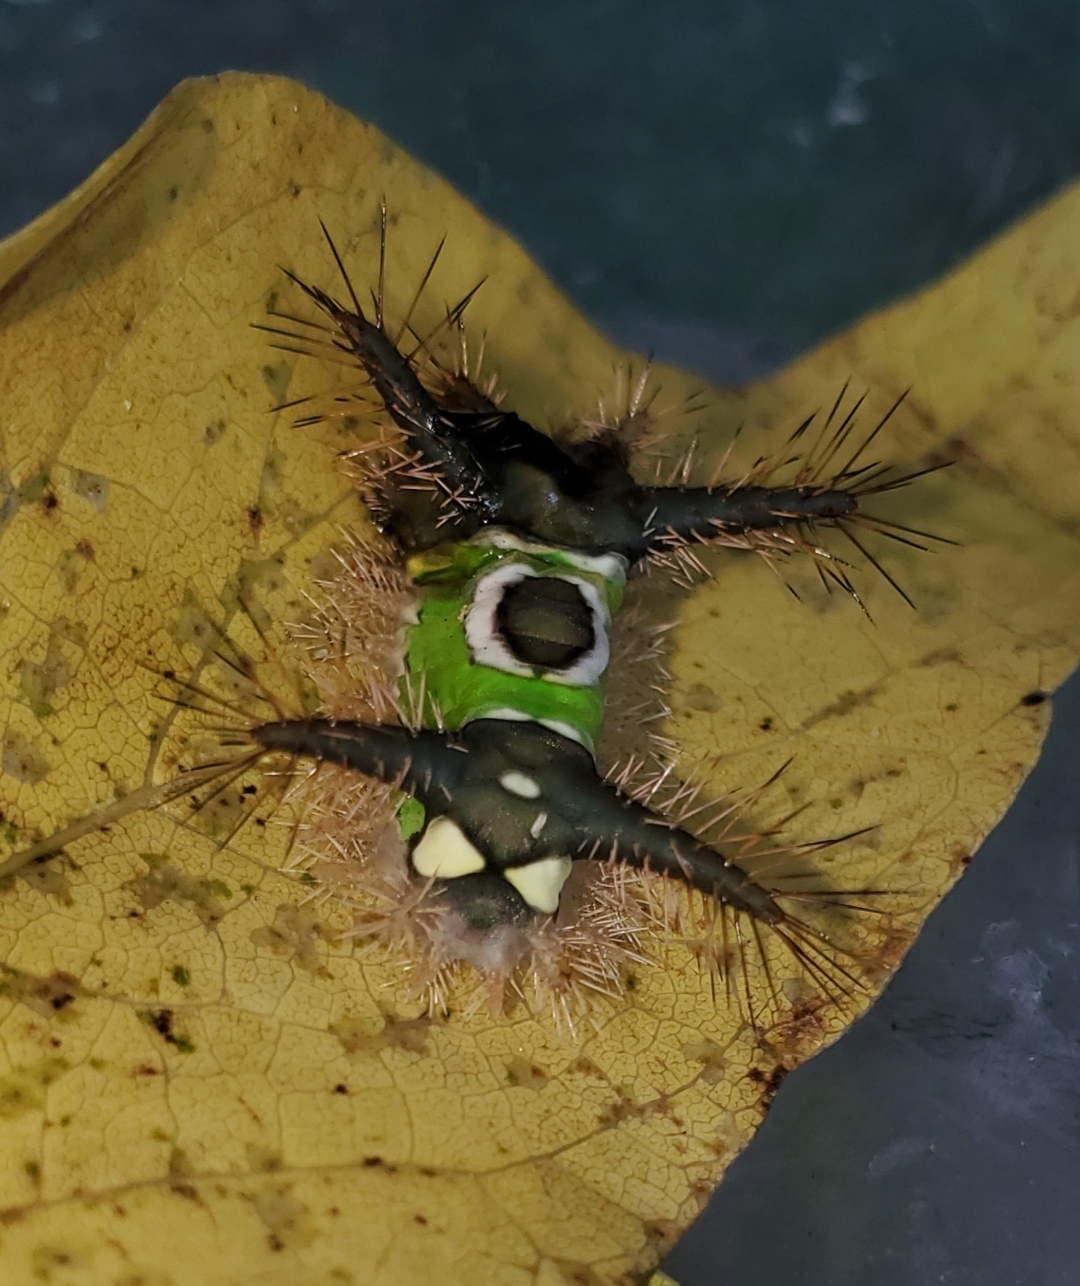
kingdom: Animalia
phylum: Arthropoda
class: Insecta
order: Lepidoptera
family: Limacodidae
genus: Acharia
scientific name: Acharia stimulea
